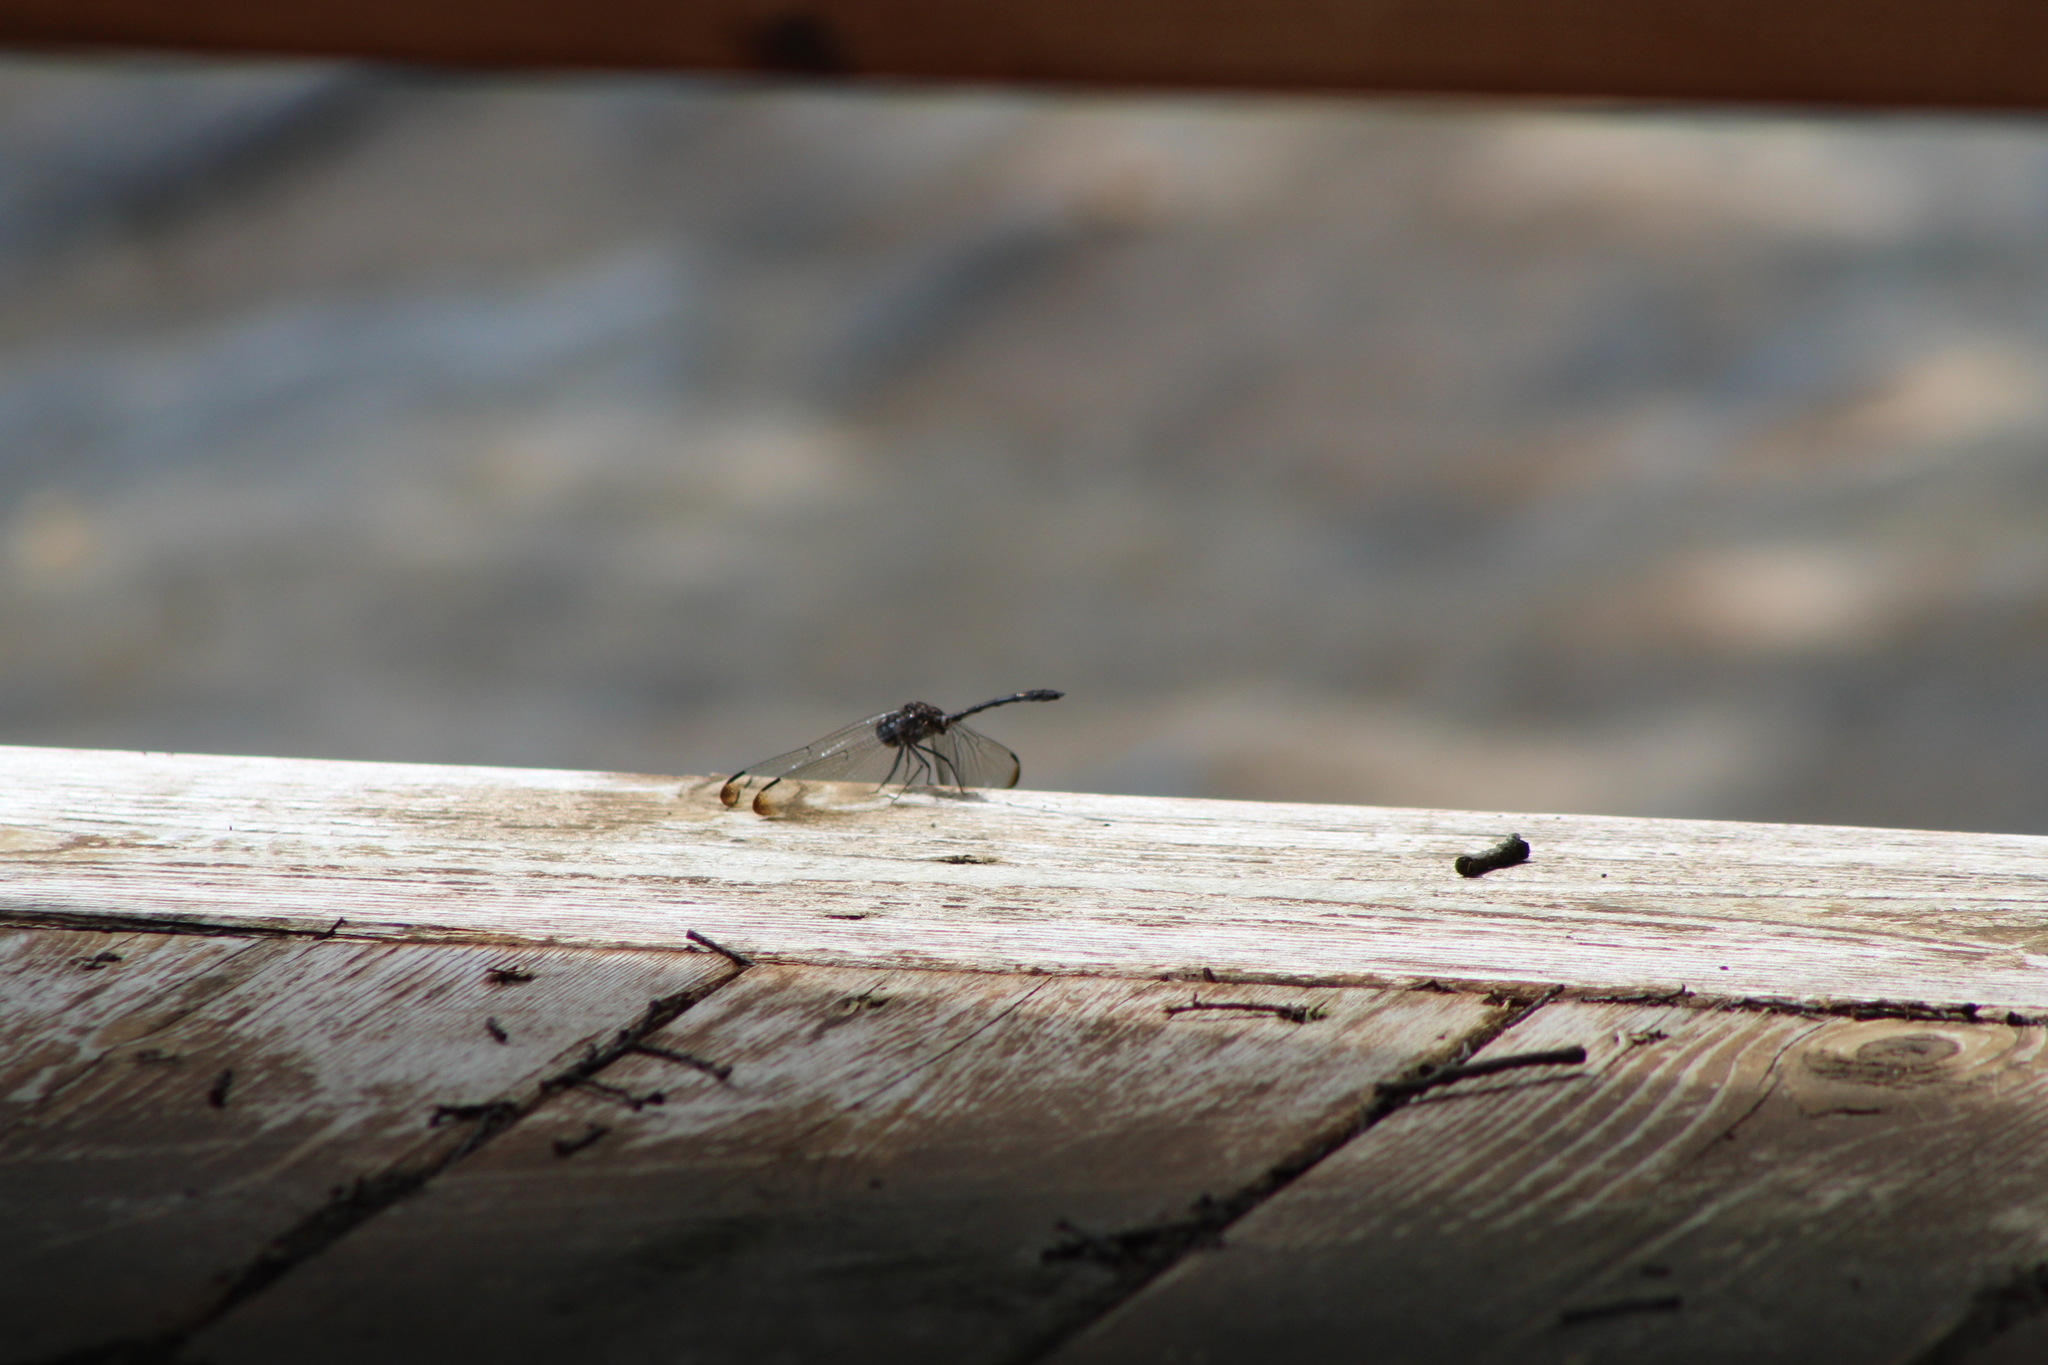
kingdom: Animalia
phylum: Arthropoda
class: Insecta
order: Odonata
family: Libellulidae
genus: Dythemis
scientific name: Dythemis velox
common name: Swift setwing
